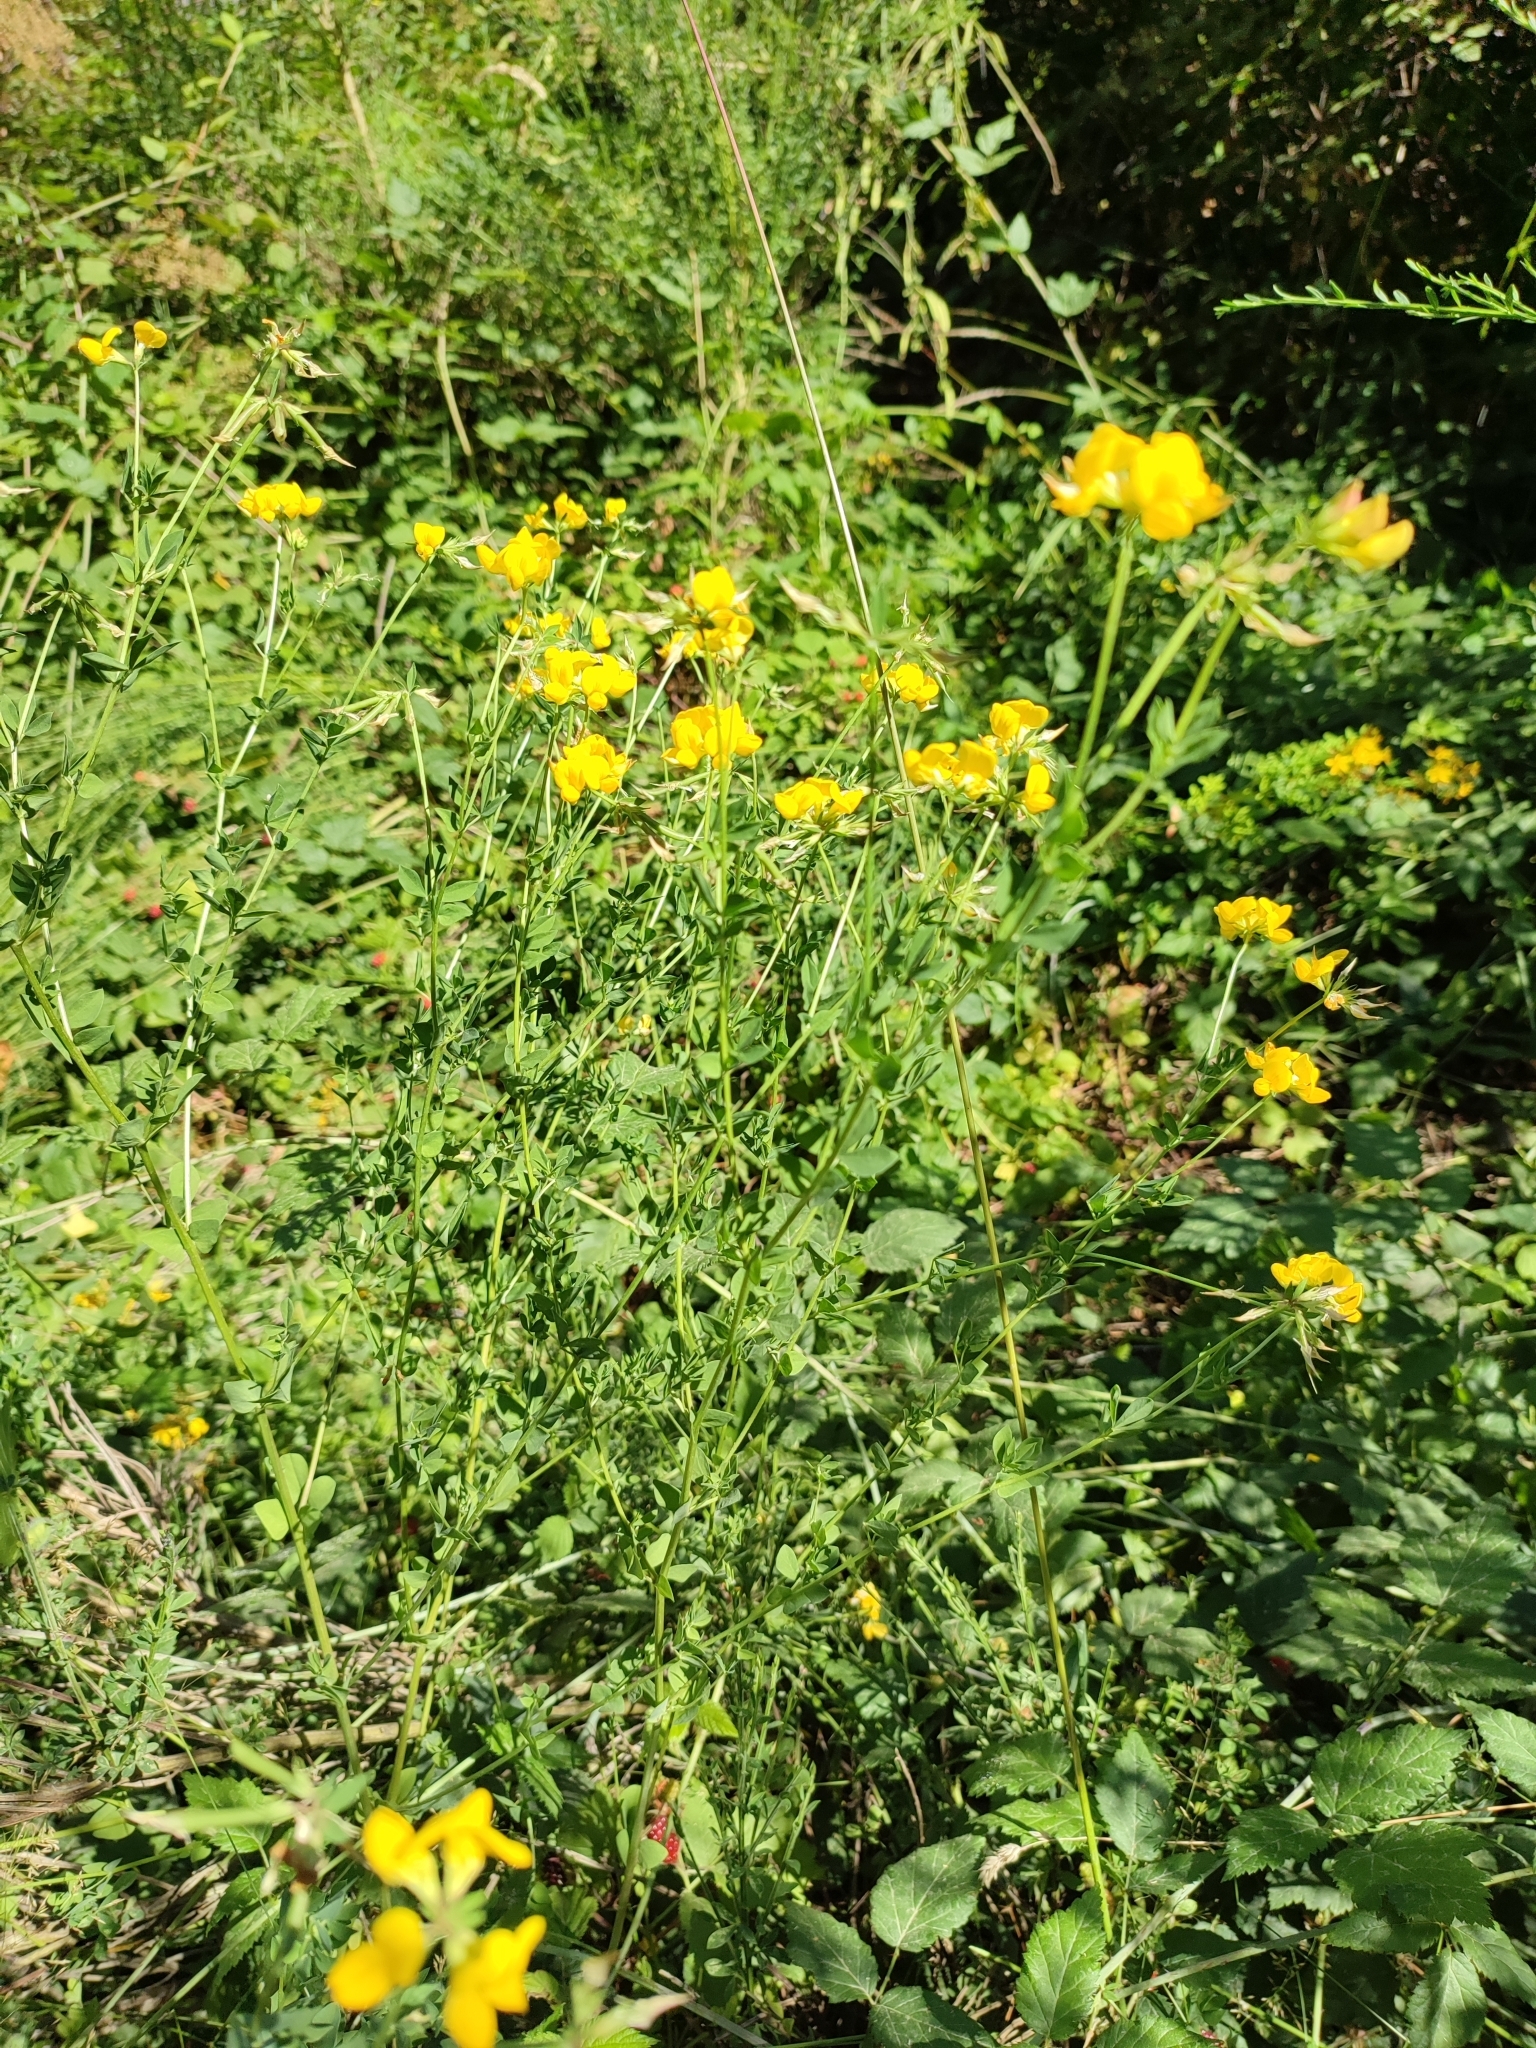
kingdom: Plantae
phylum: Tracheophyta
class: Magnoliopsida
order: Fabales
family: Fabaceae
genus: Lotus
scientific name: Lotus corniculatus
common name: Common bird's-foot-trefoil
